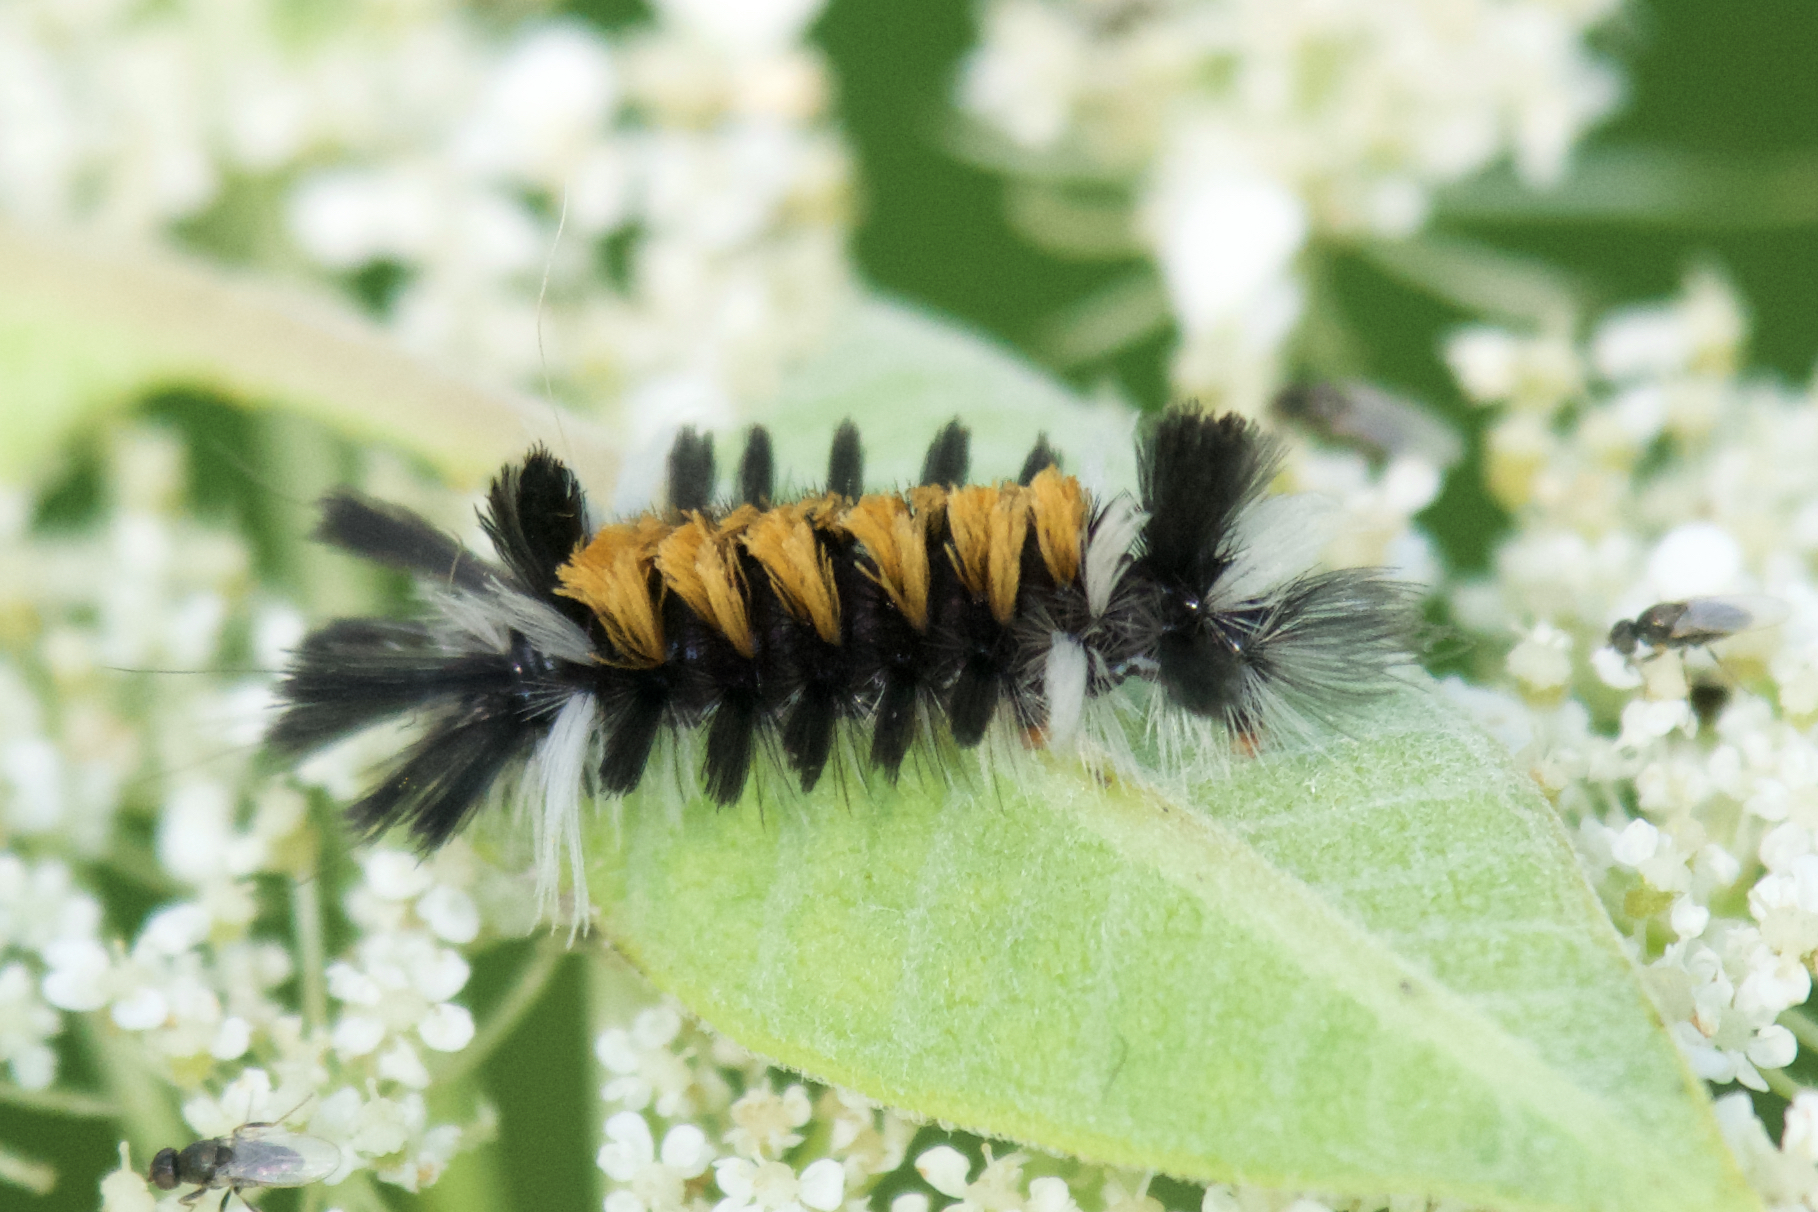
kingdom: Animalia
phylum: Arthropoda
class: Insecta
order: Lepidoptera
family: Erebidae
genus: Euchaetes
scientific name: Euchaetes egle
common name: Milkweed tussock moth
